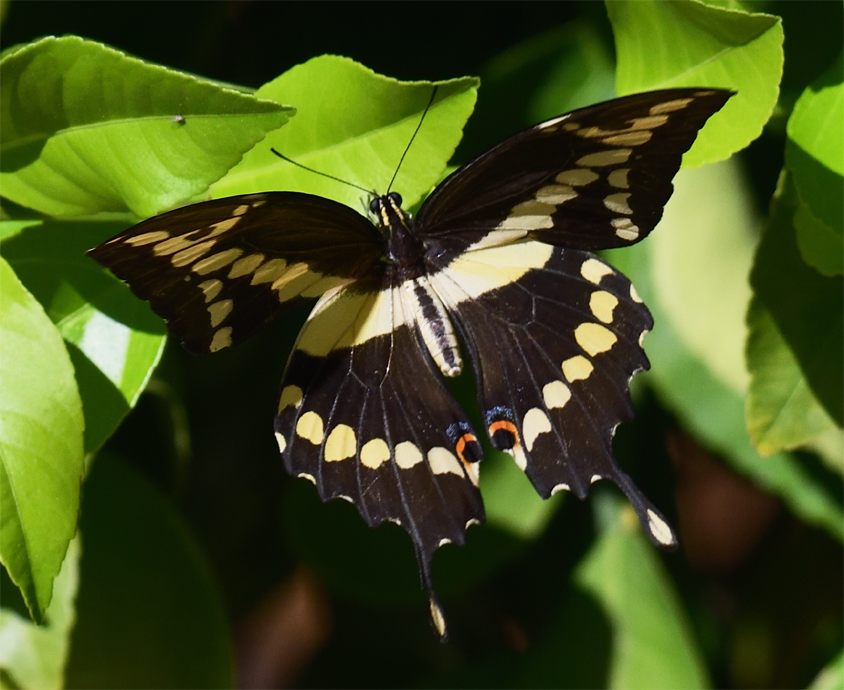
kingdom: Animalia
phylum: Arthropoda
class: Insecta
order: Lepidoptera
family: Papilionidae
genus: Papilio
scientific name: Papilio rumiko
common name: Western giant swallowtail
